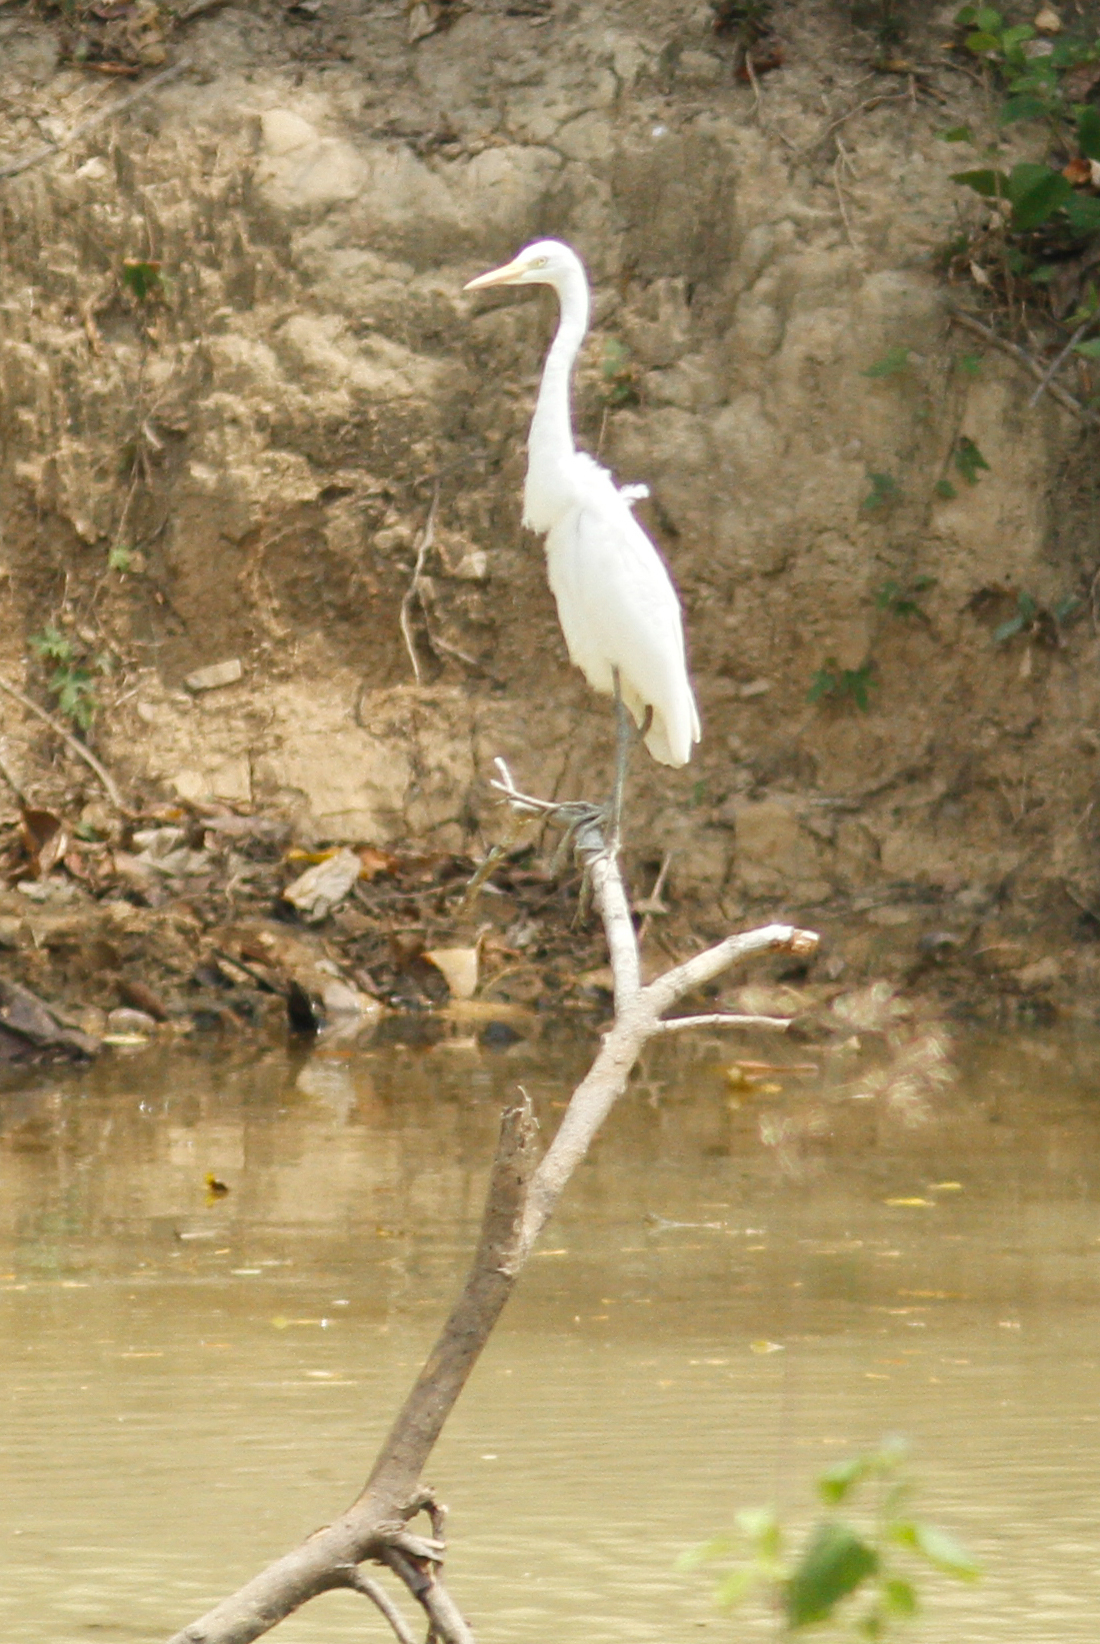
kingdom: Animalia
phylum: Chordata
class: Aves
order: Pelecaniformes
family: Ardeidae
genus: Egretta
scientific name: Egretta intermedia
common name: Intermediate egret
